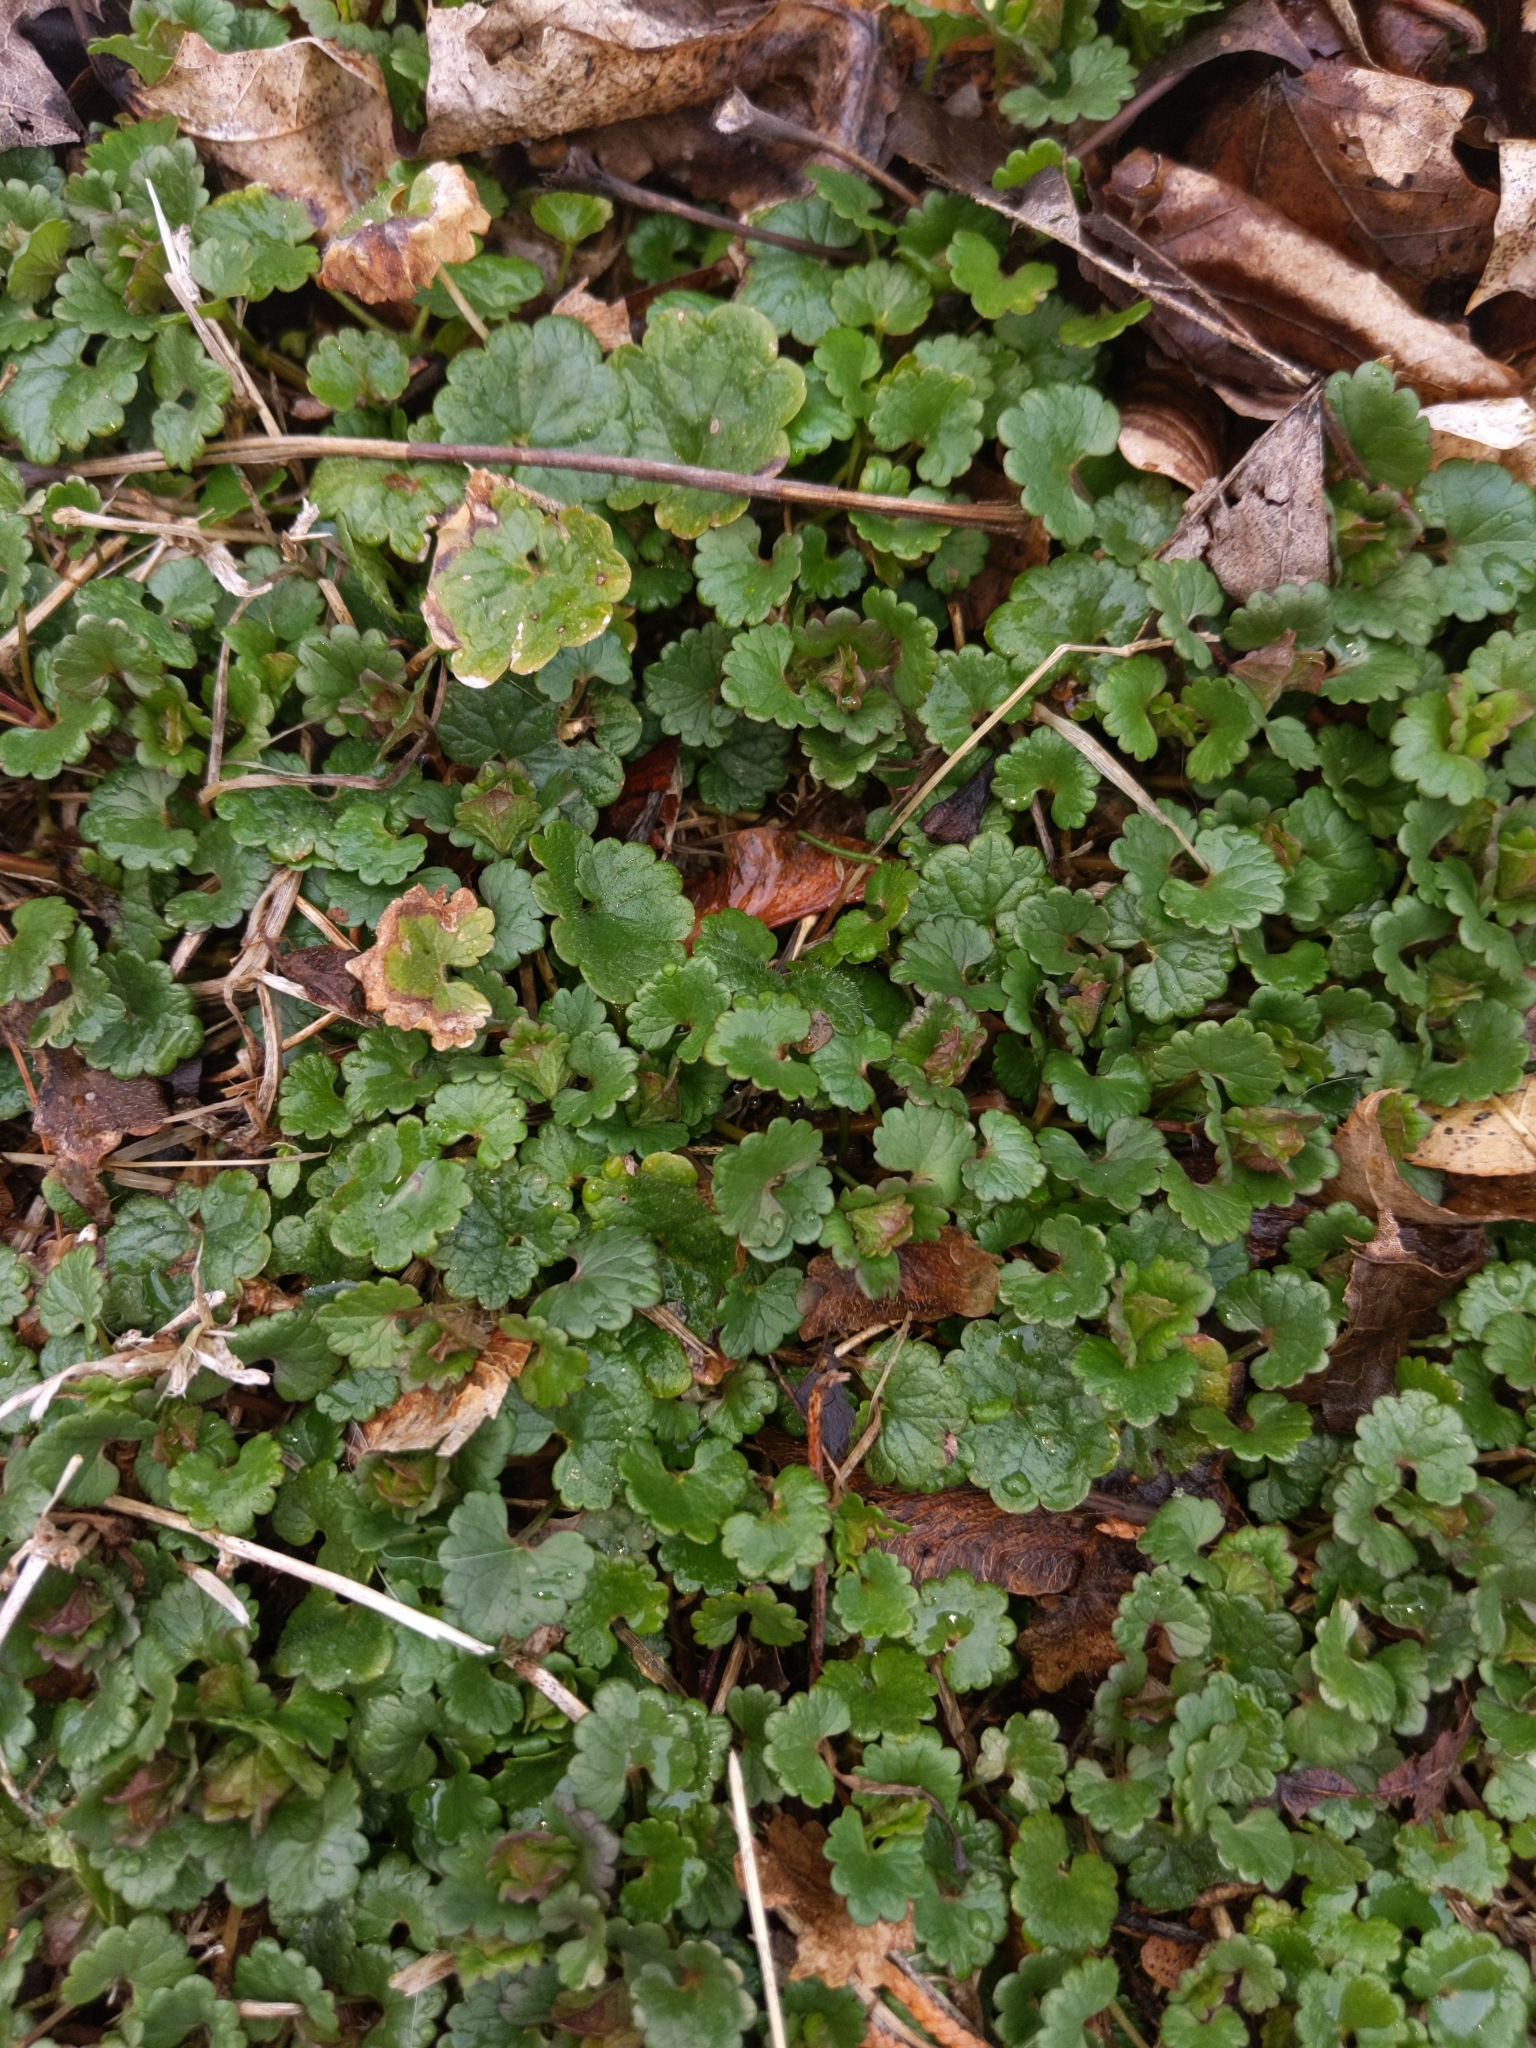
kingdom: Plantae
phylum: Tracheophyta
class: Magnoliopsida
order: Lamiales
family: Lamiaceae
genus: Glechoma
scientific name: Glechoma hederacea
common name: Ground ivy
